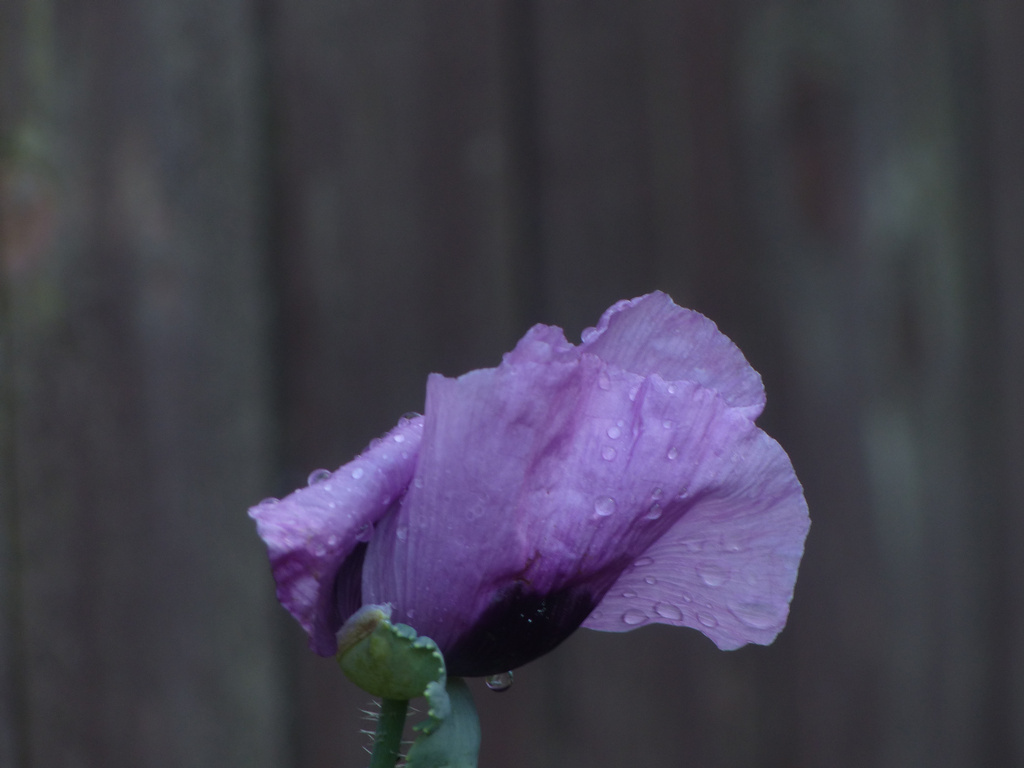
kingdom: Plantae
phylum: Tracheophyta
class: Magnoliopsida
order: Ranunculales
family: Papaveraceae
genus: Papaver
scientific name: Papaver somniferum
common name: Opium poppy
